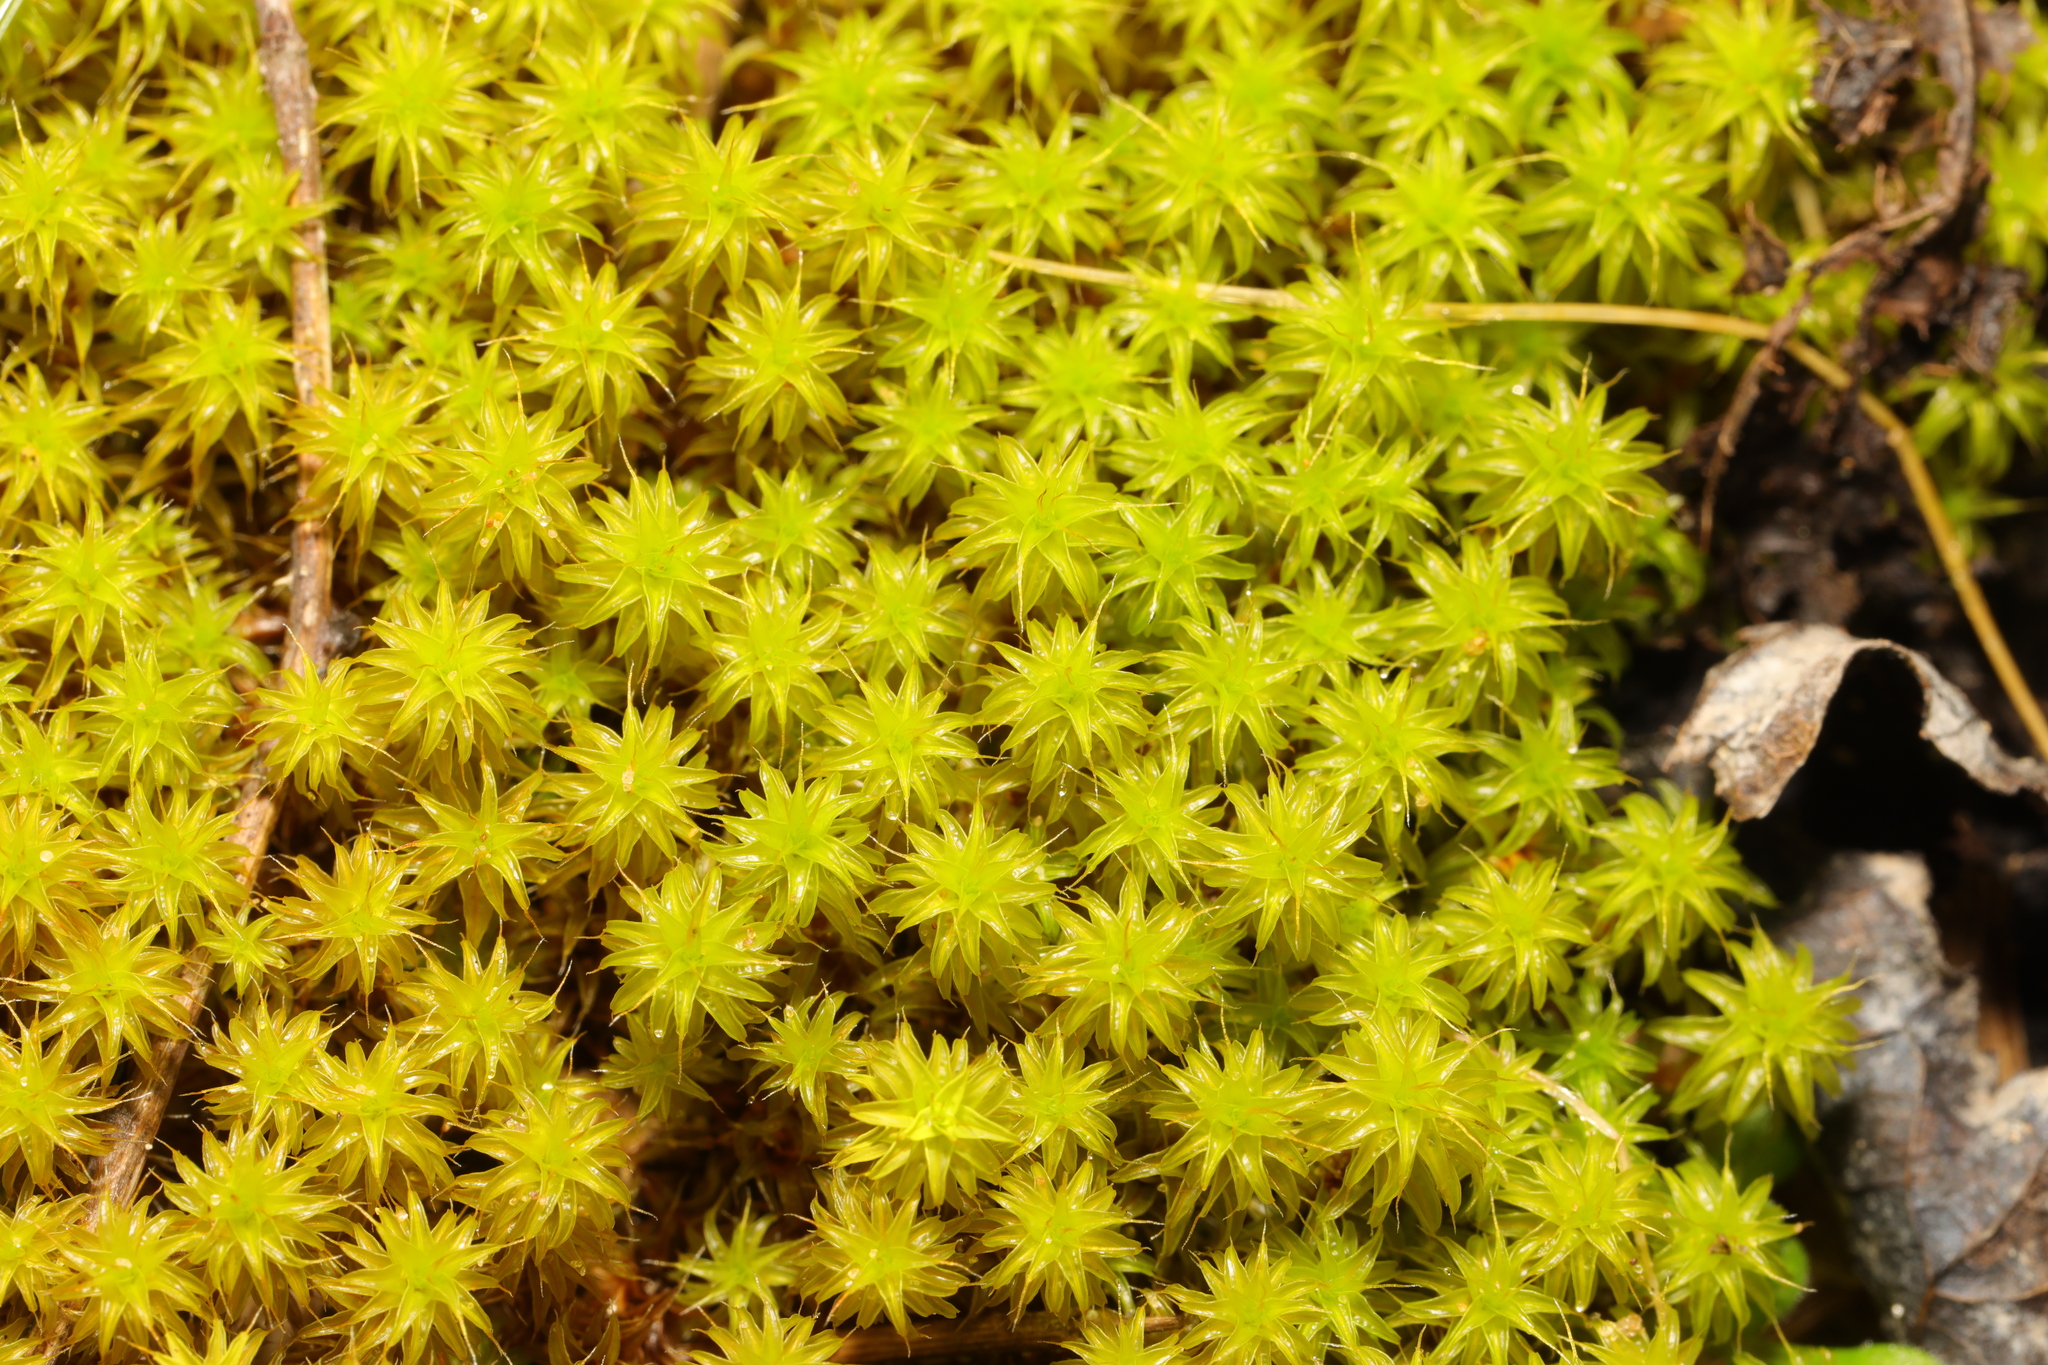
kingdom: Plantae
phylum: Bryophyta
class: Bryopsida
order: Pottiales
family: Pottiaceae
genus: Syntrichia
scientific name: Syntrichia ruralis
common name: Sidewalk screw moss
